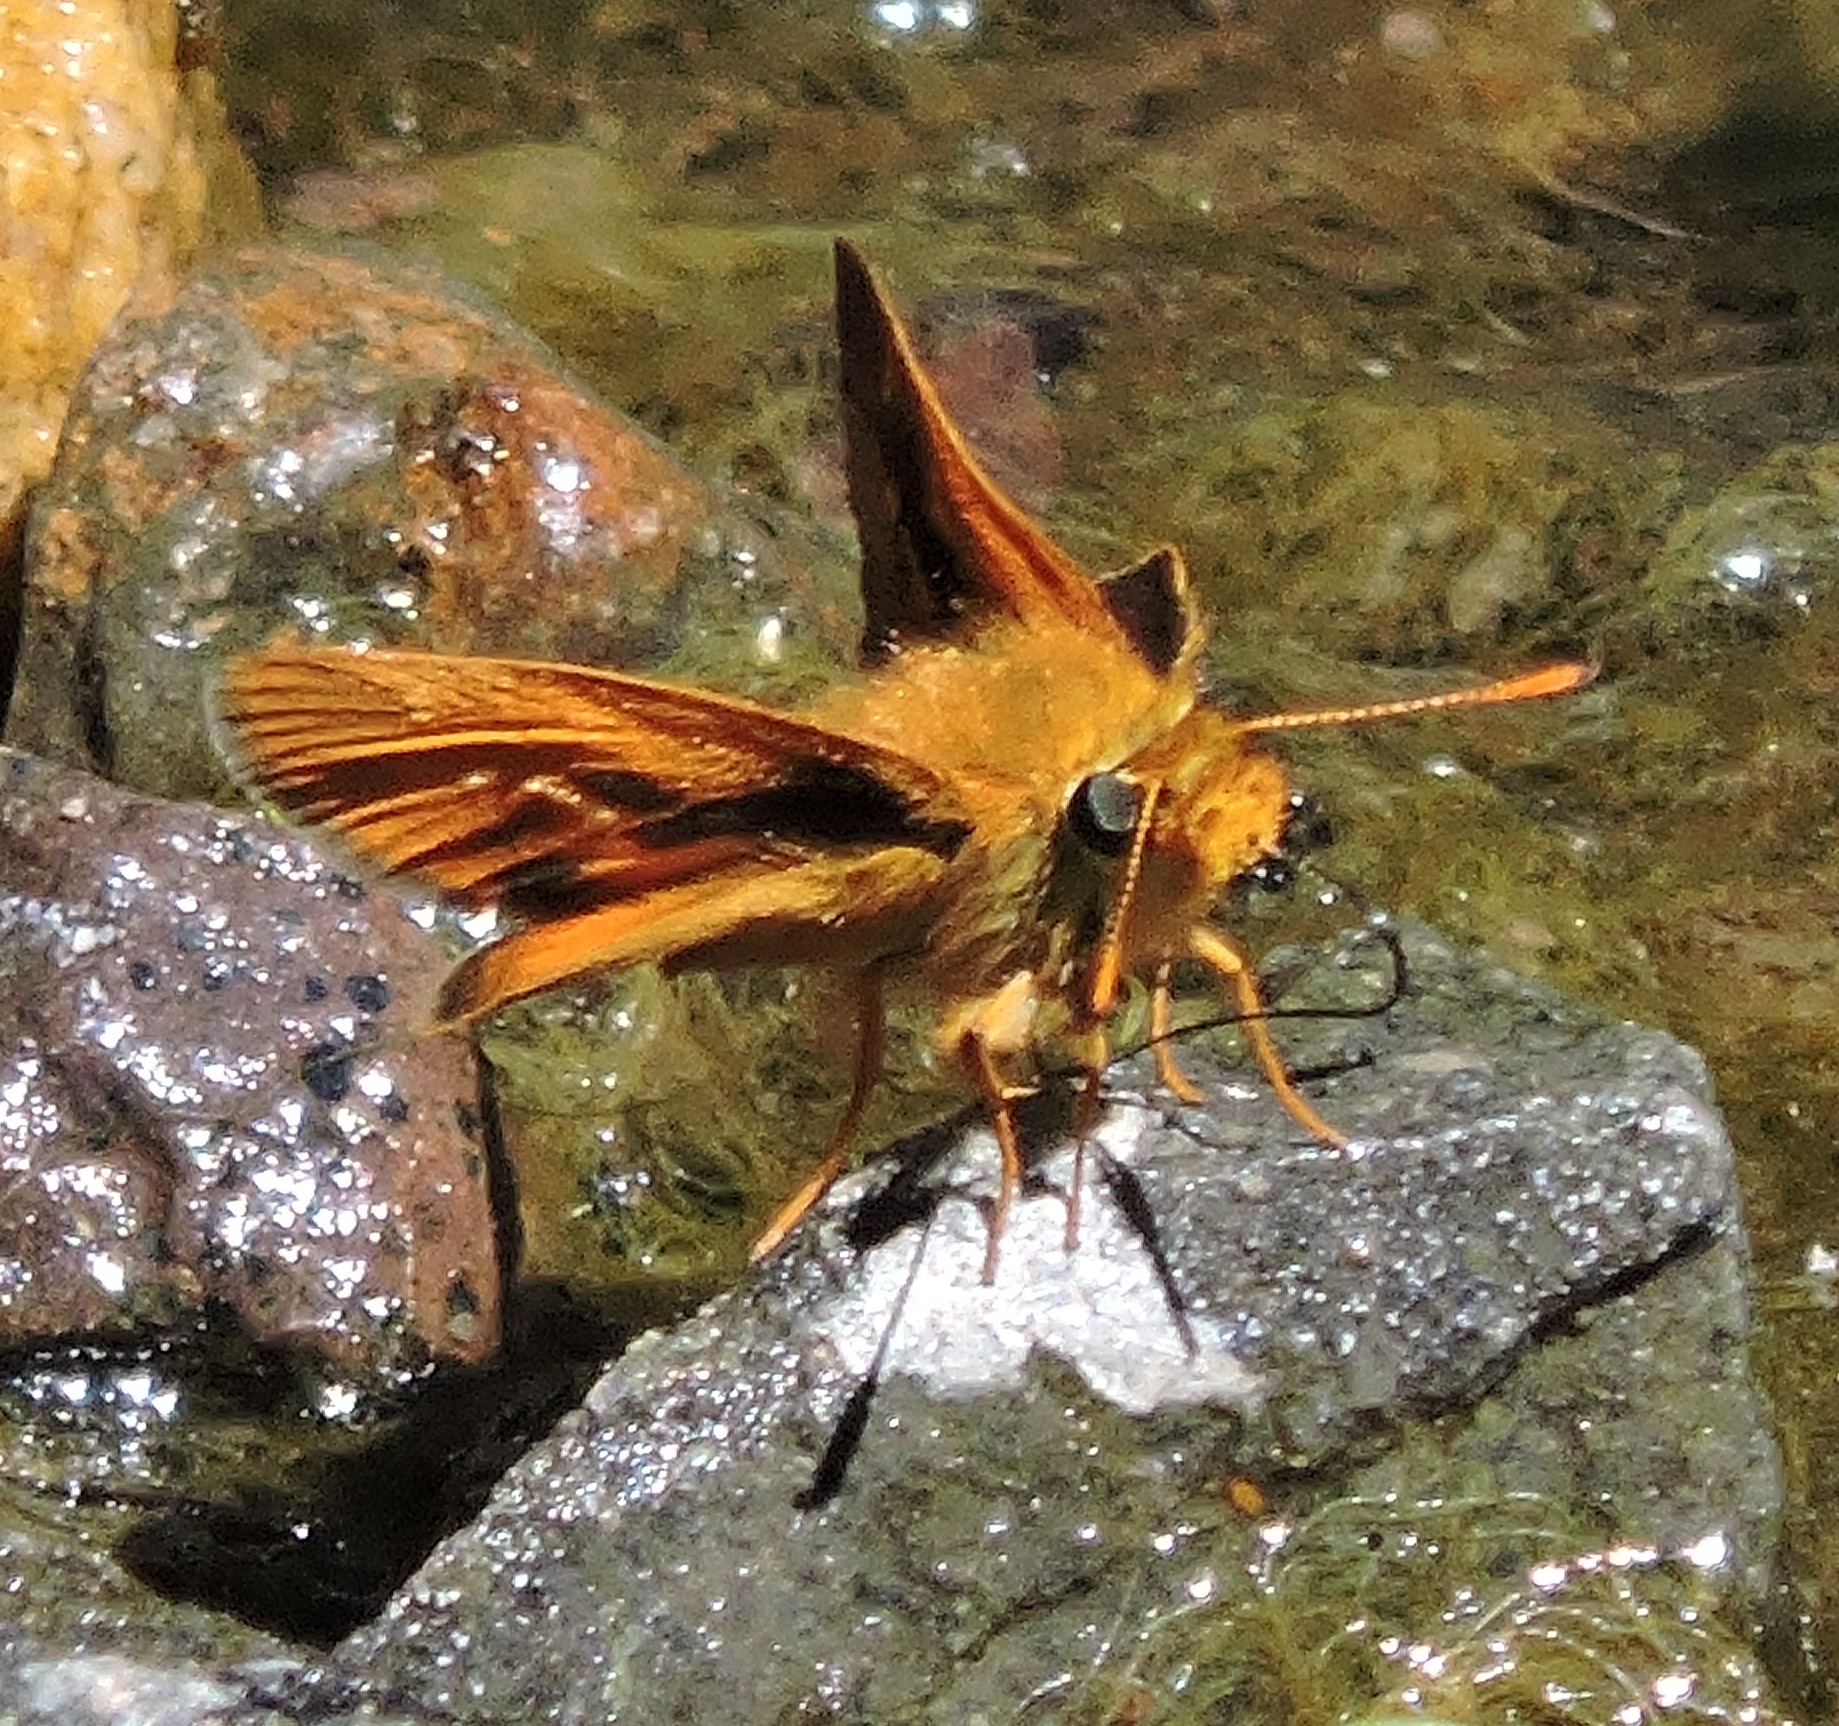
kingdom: Animalia
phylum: Arthropoda
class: Insecta
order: Lepidoptera
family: Hesperiidae
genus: Ochlodes
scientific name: Ochlodes agricola
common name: Rural skipper
